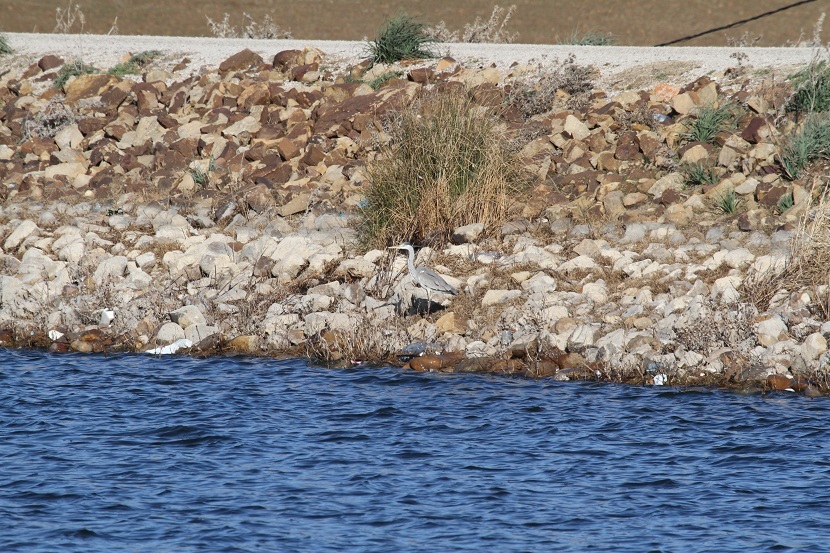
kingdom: Animalia
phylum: Chordata
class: Aves
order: Pelecaniformes
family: Ardeidae
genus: Ardea
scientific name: Ardea cinerea
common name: Grey heron
